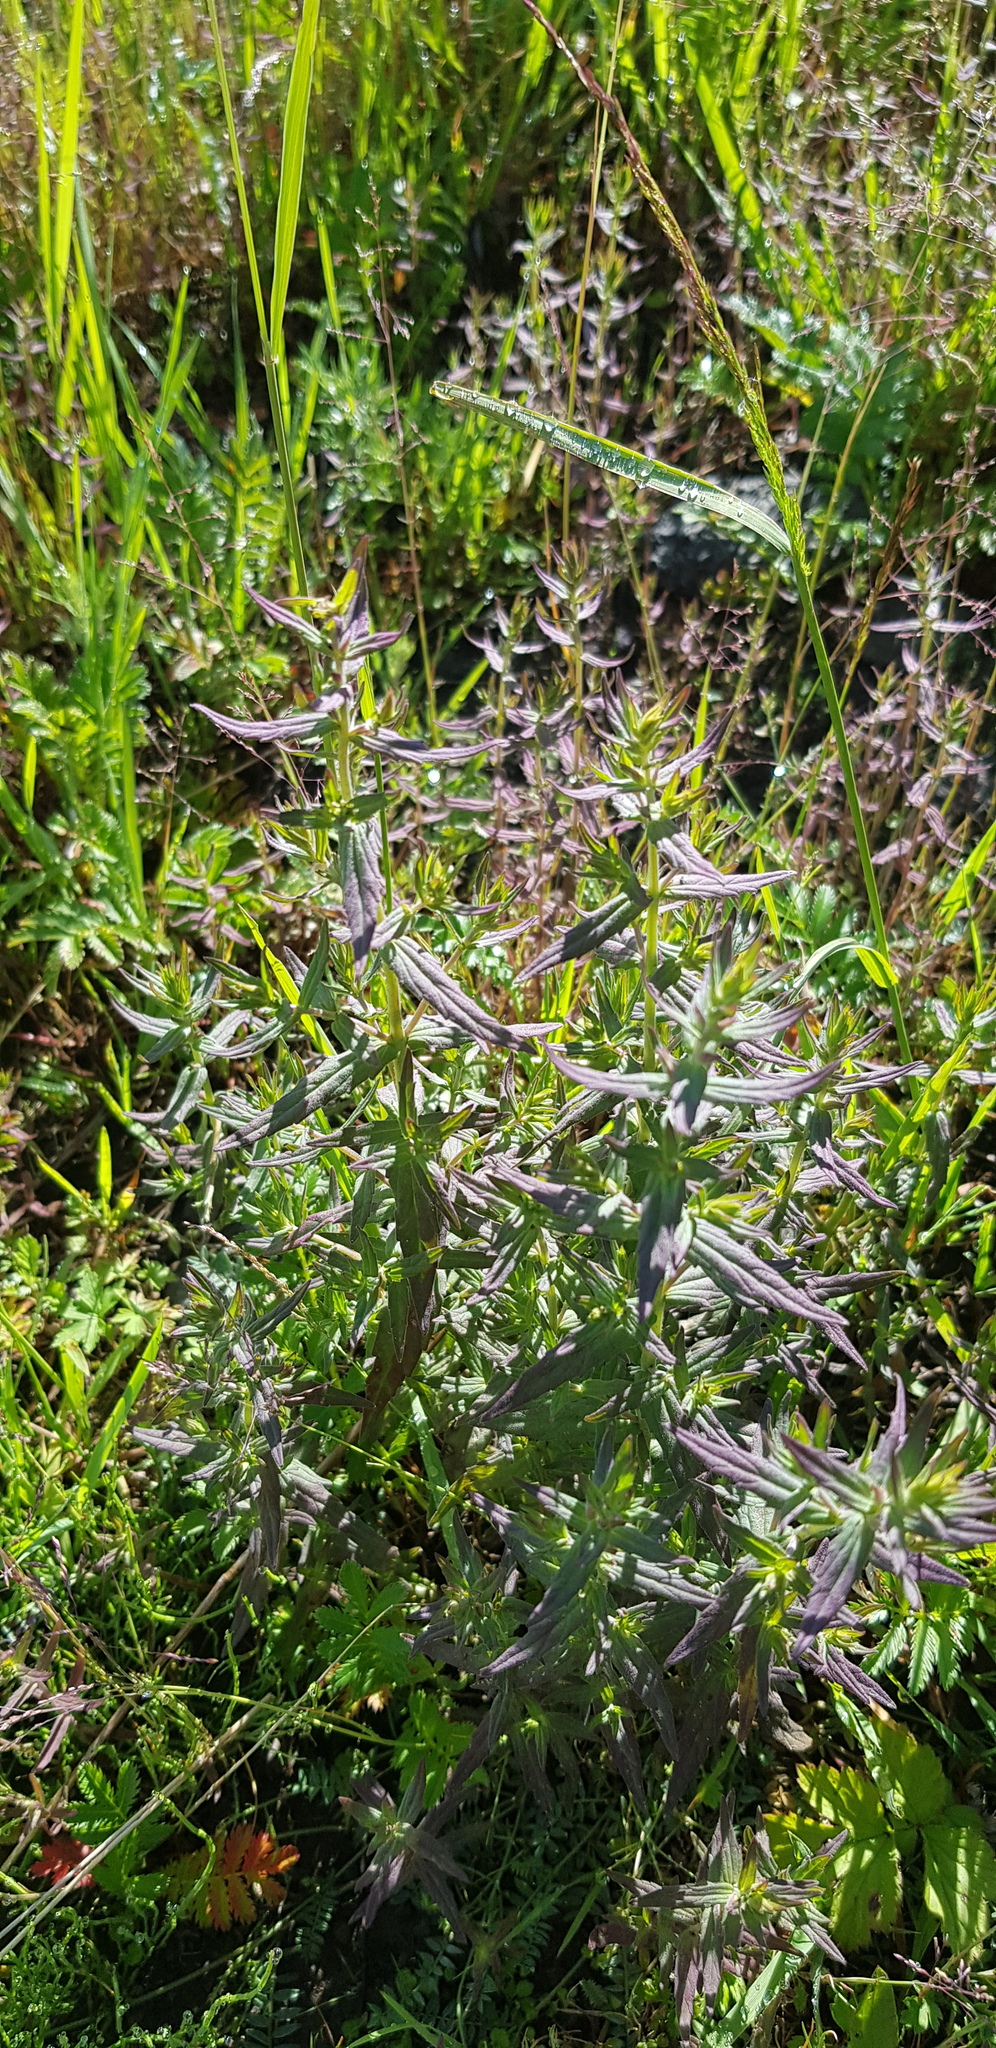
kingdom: Plantae
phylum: Tracheophyta
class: Magnoliopsida
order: Lamiales
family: Orobanchaceae
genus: Odontites
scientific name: Odontites vulgaris
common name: Broomrape
